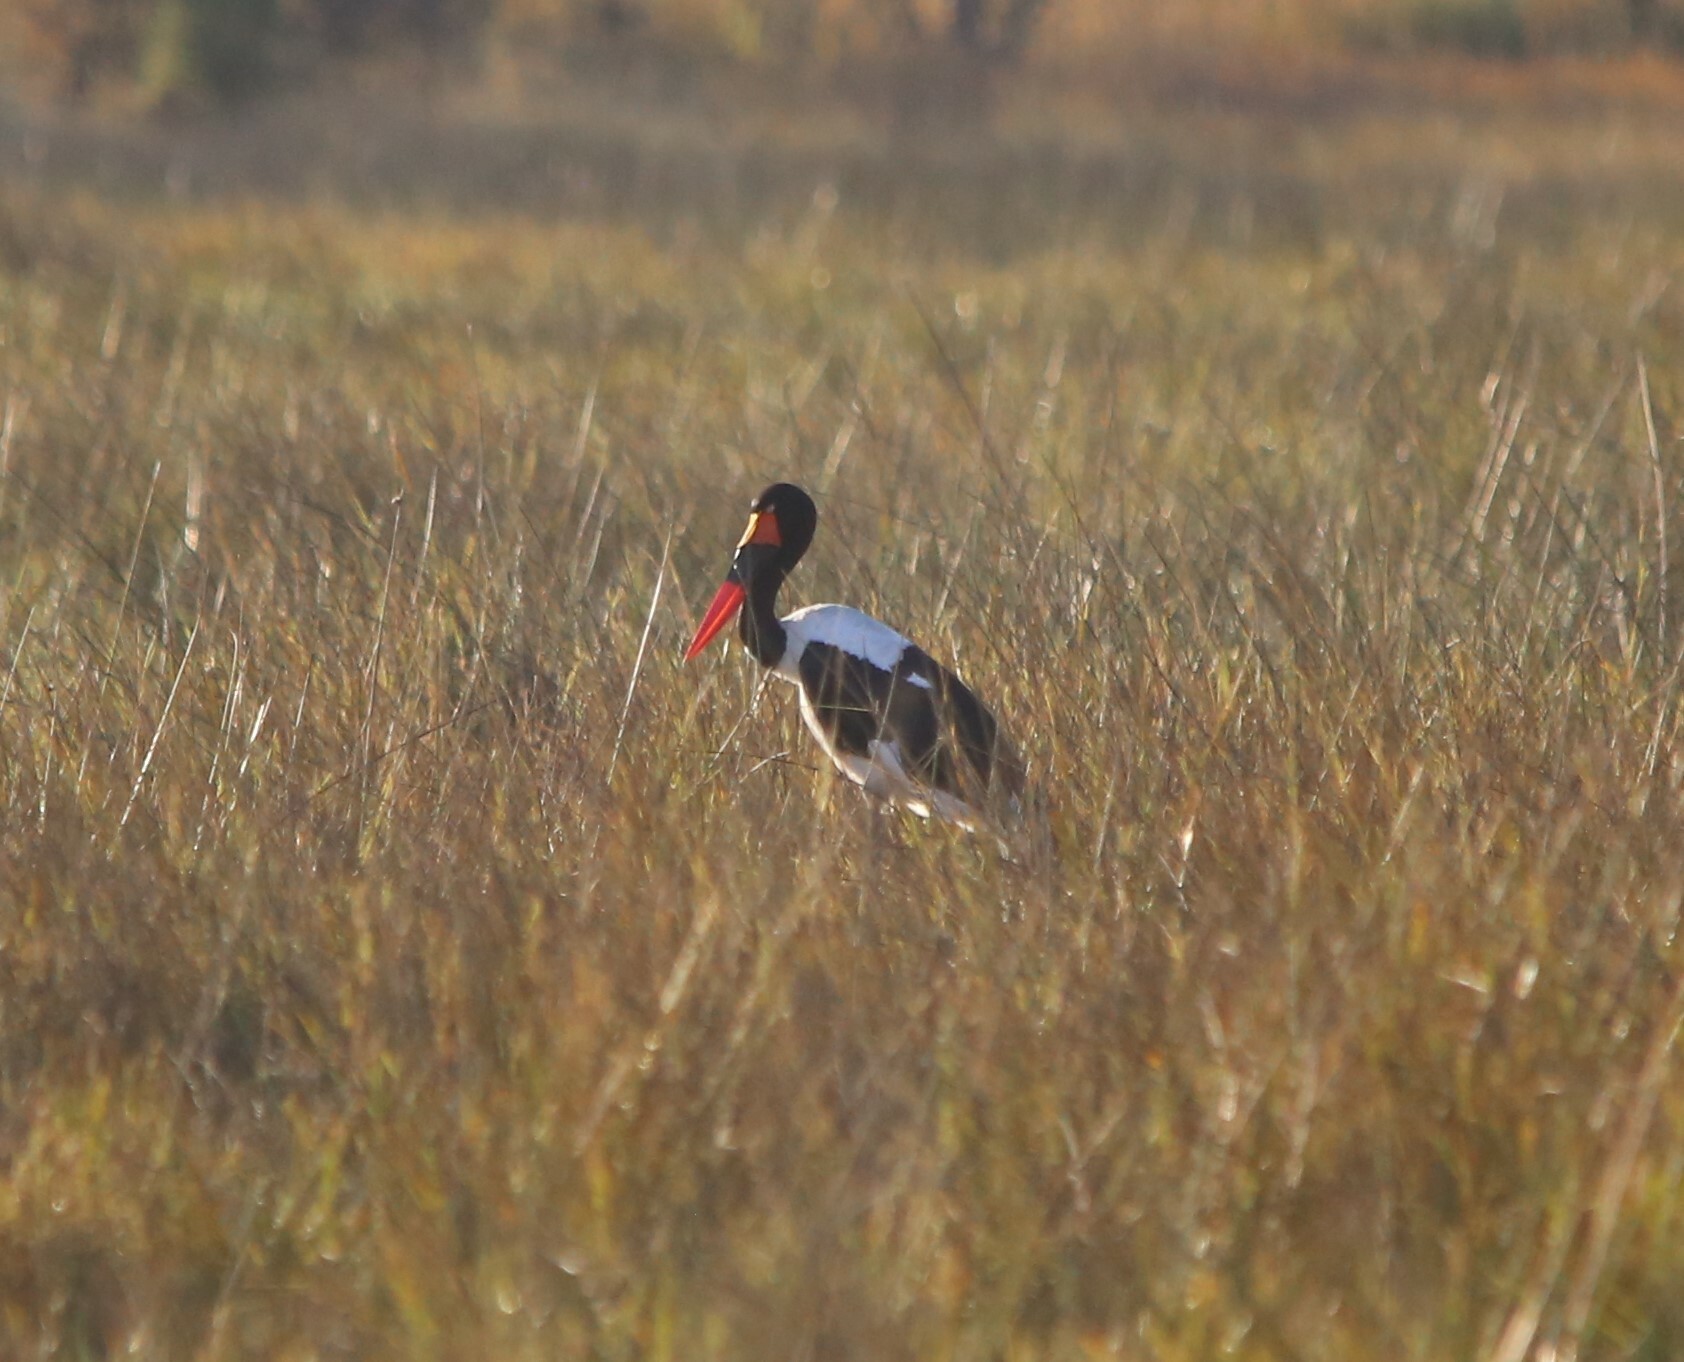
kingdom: Animalia
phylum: Chordata
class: Aves
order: Ciconiiformes
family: Ciconiidae
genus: Ephippiorhynchus
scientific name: Ephippiorhynchus senegalensis
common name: Saddle-billed stork
